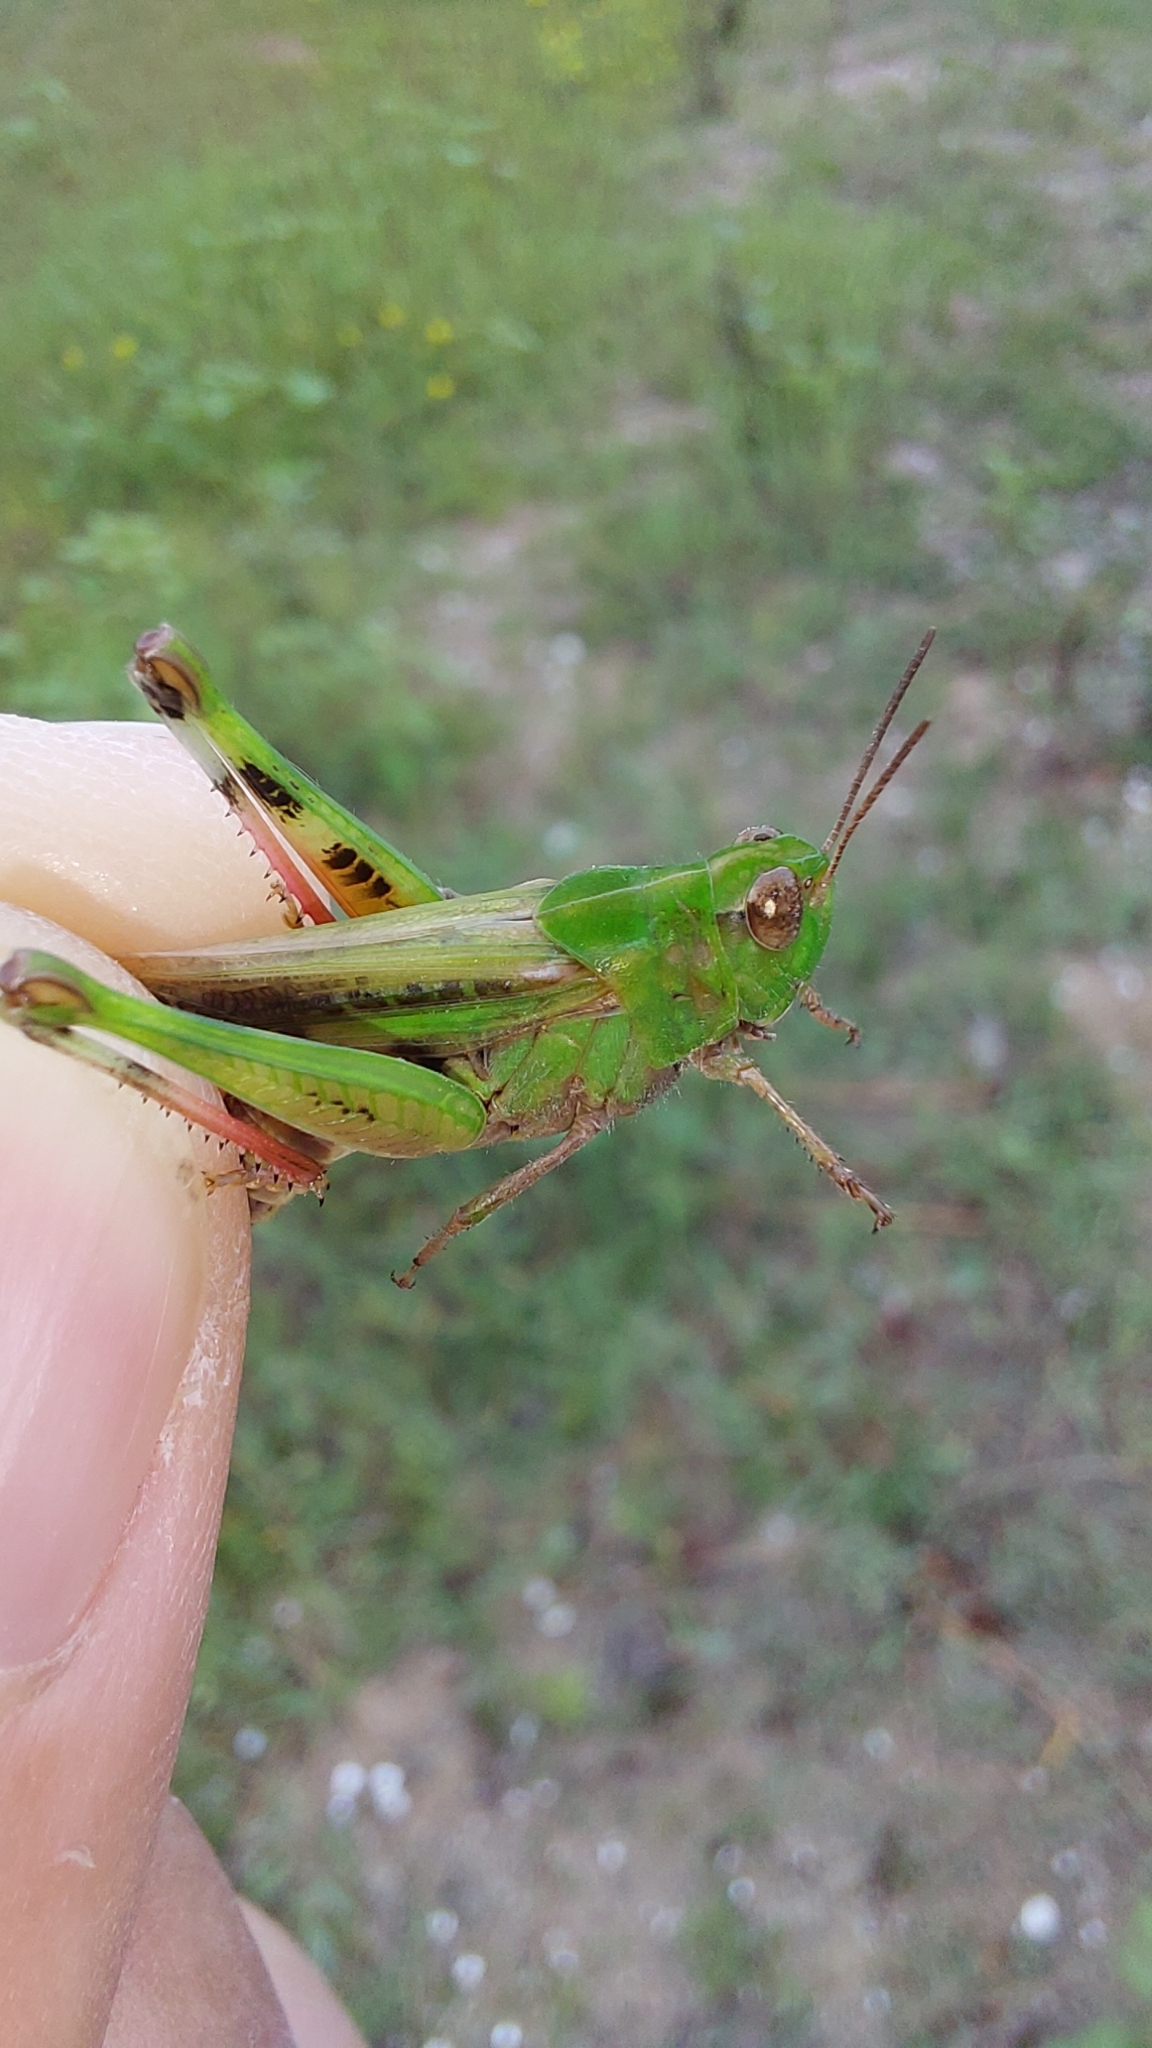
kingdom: Animalia
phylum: Arthropoda
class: Insecta
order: Orthoptera
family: Acrididae
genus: Aiolopus
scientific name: Aiolopus thalassinus
